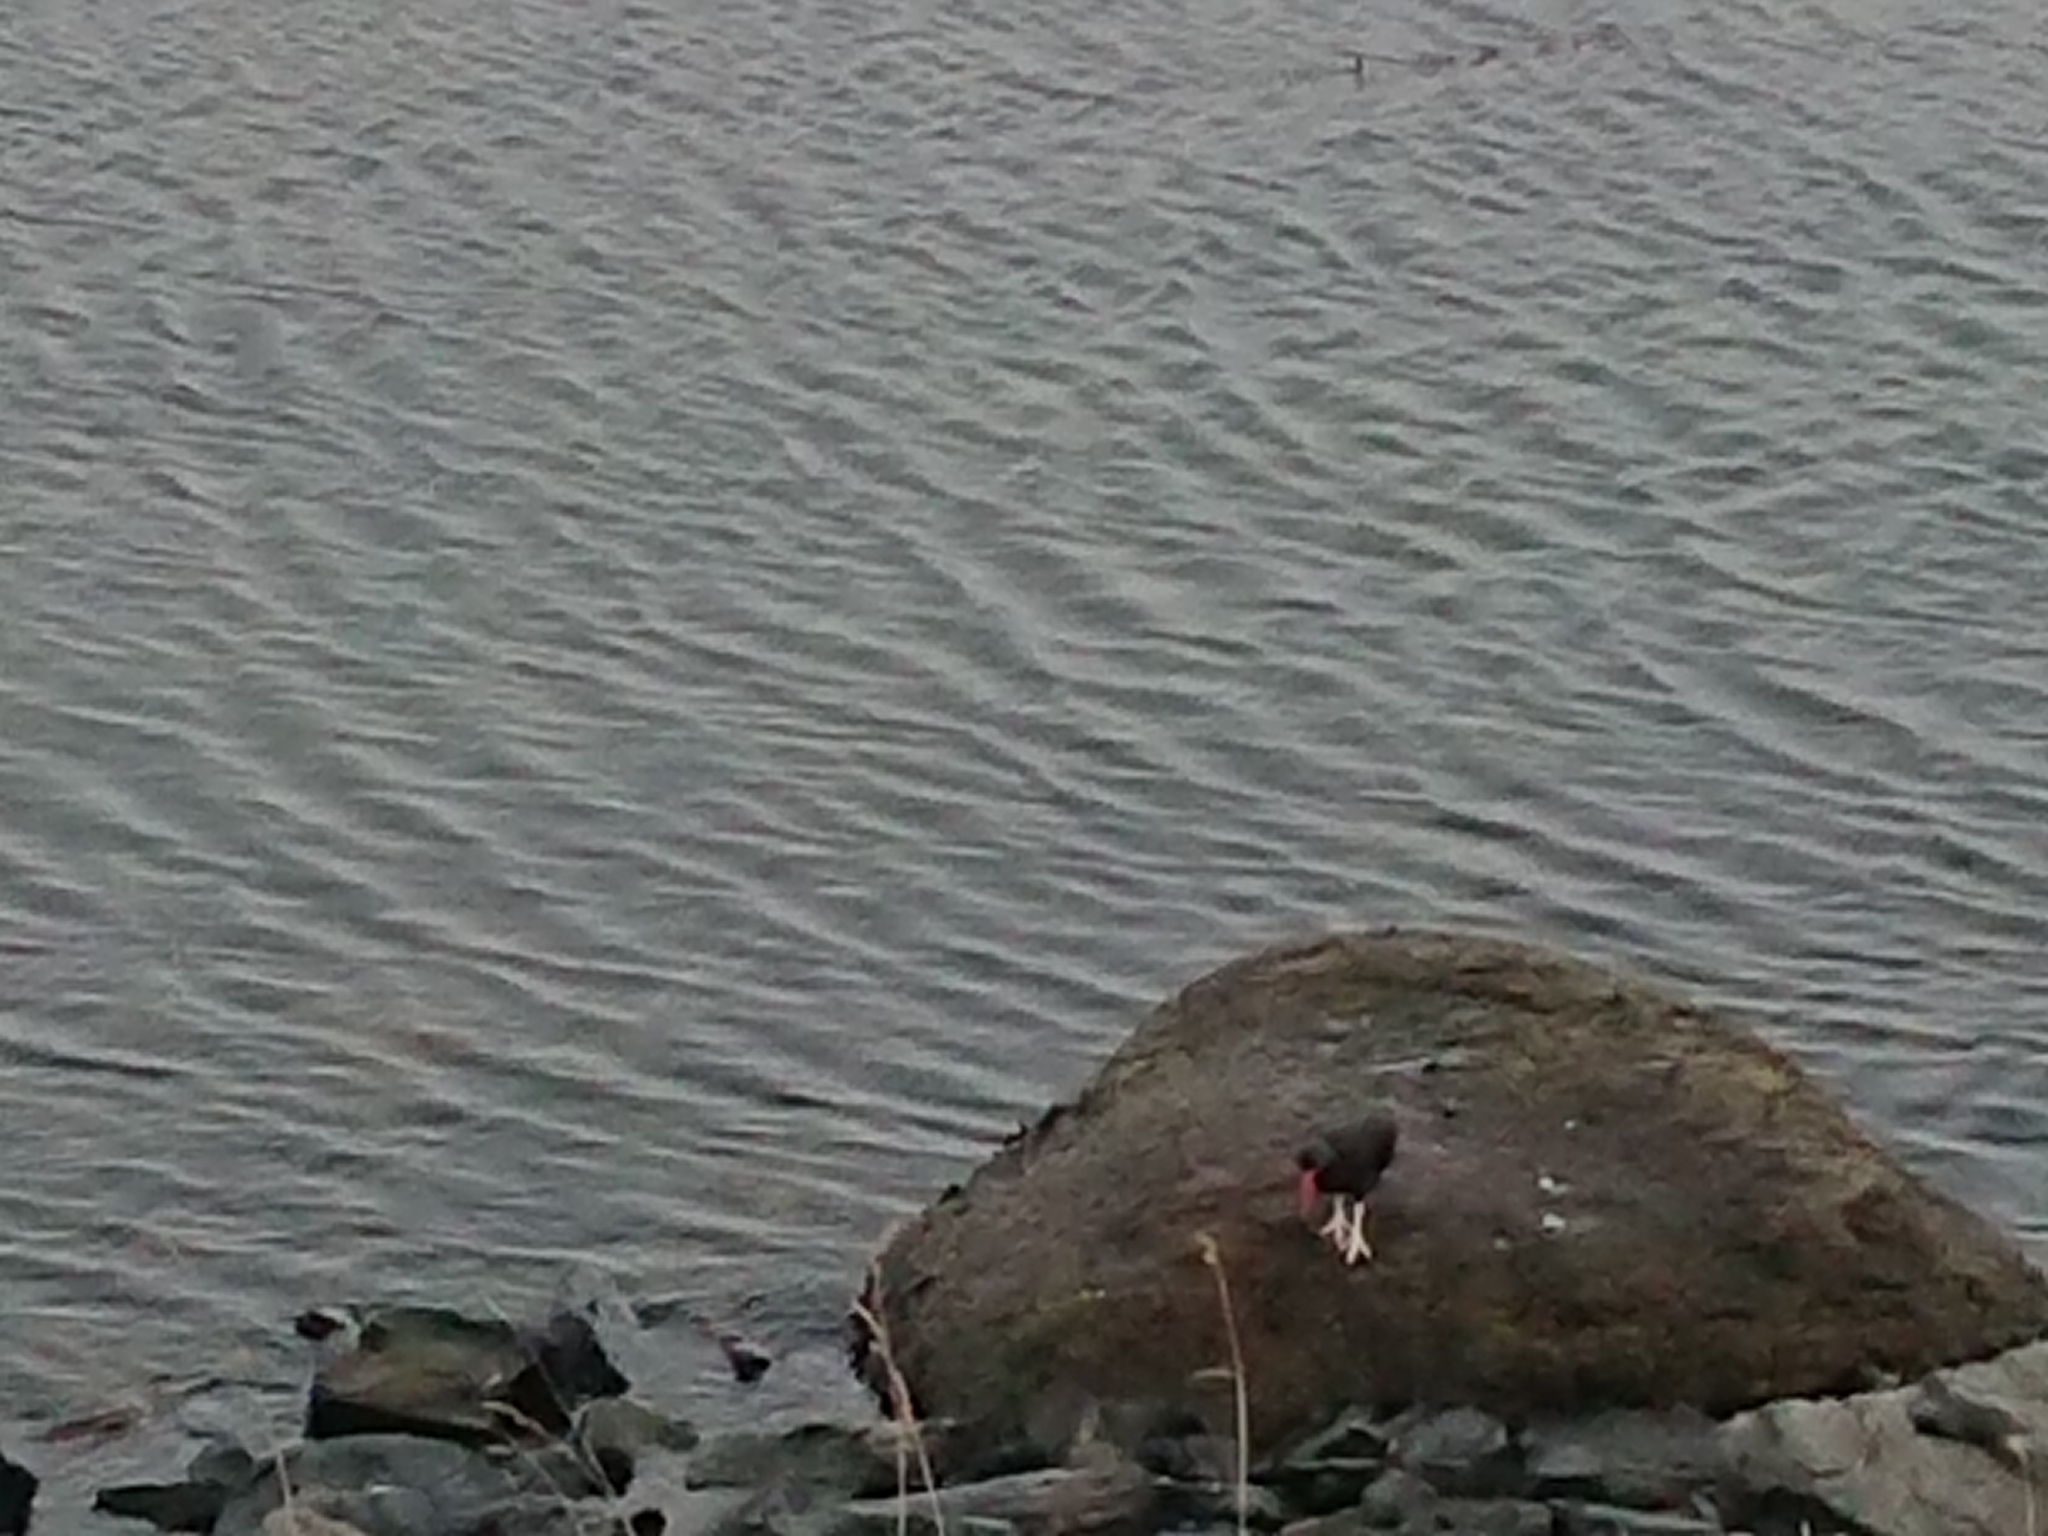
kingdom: Animalia
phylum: Chordata
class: Aves
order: Charadriiformes
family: Haematopodidae
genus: Haematopus
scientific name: Haematopus ater
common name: Blackish oystercatcher
